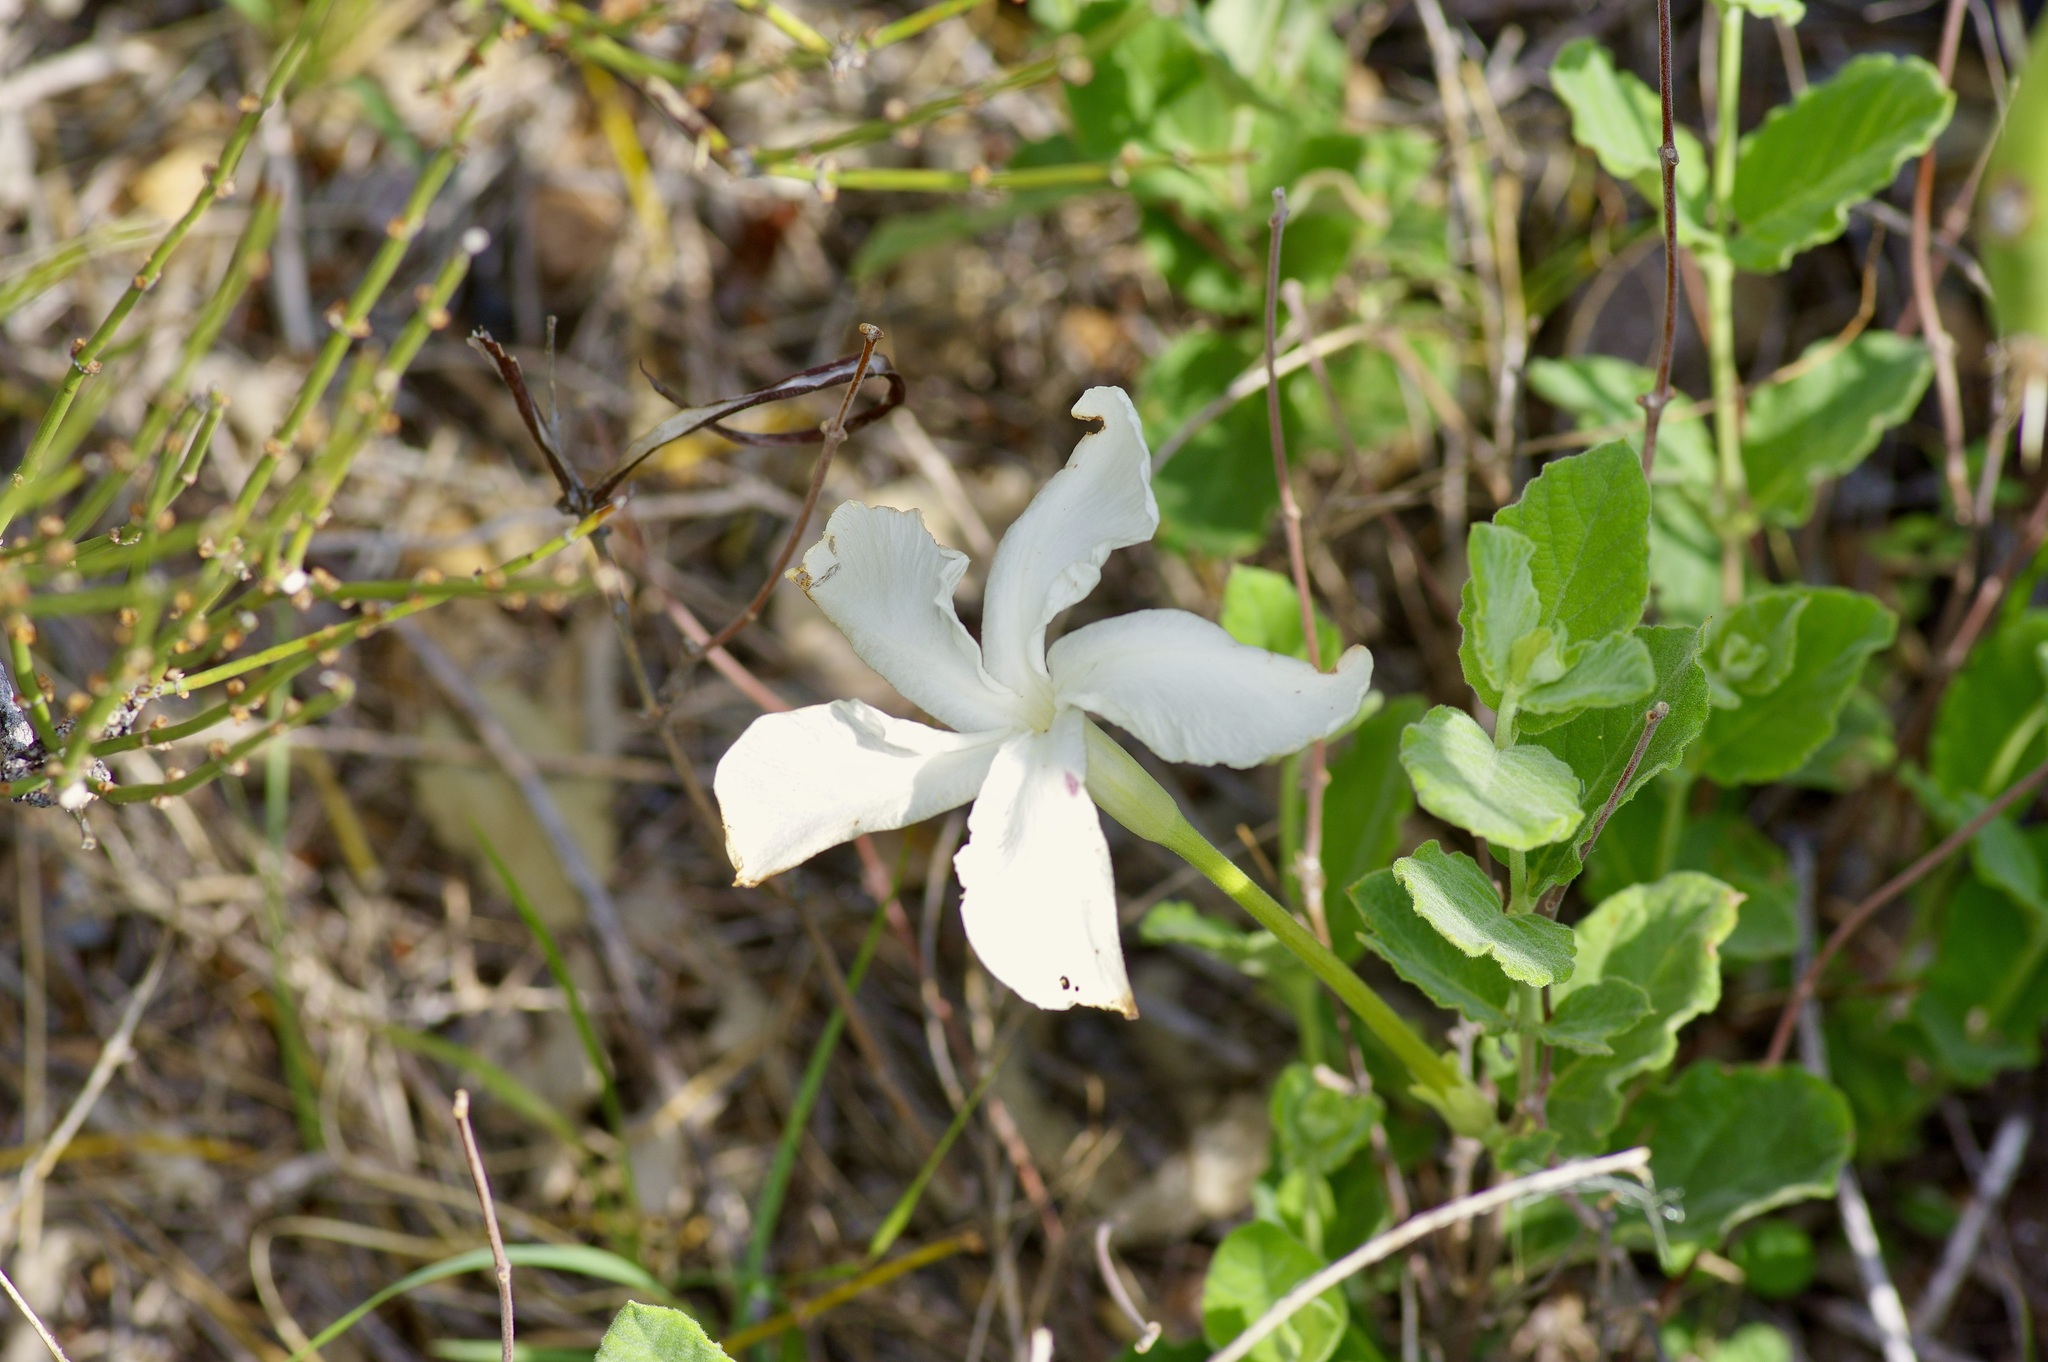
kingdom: Plantae
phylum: Tracheophyta
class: Magnoliopsida
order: Gentianales
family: Apocynaceae
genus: Mandevilla
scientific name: Mandevilla macrosiphon
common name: Plateau rocktrumpet
